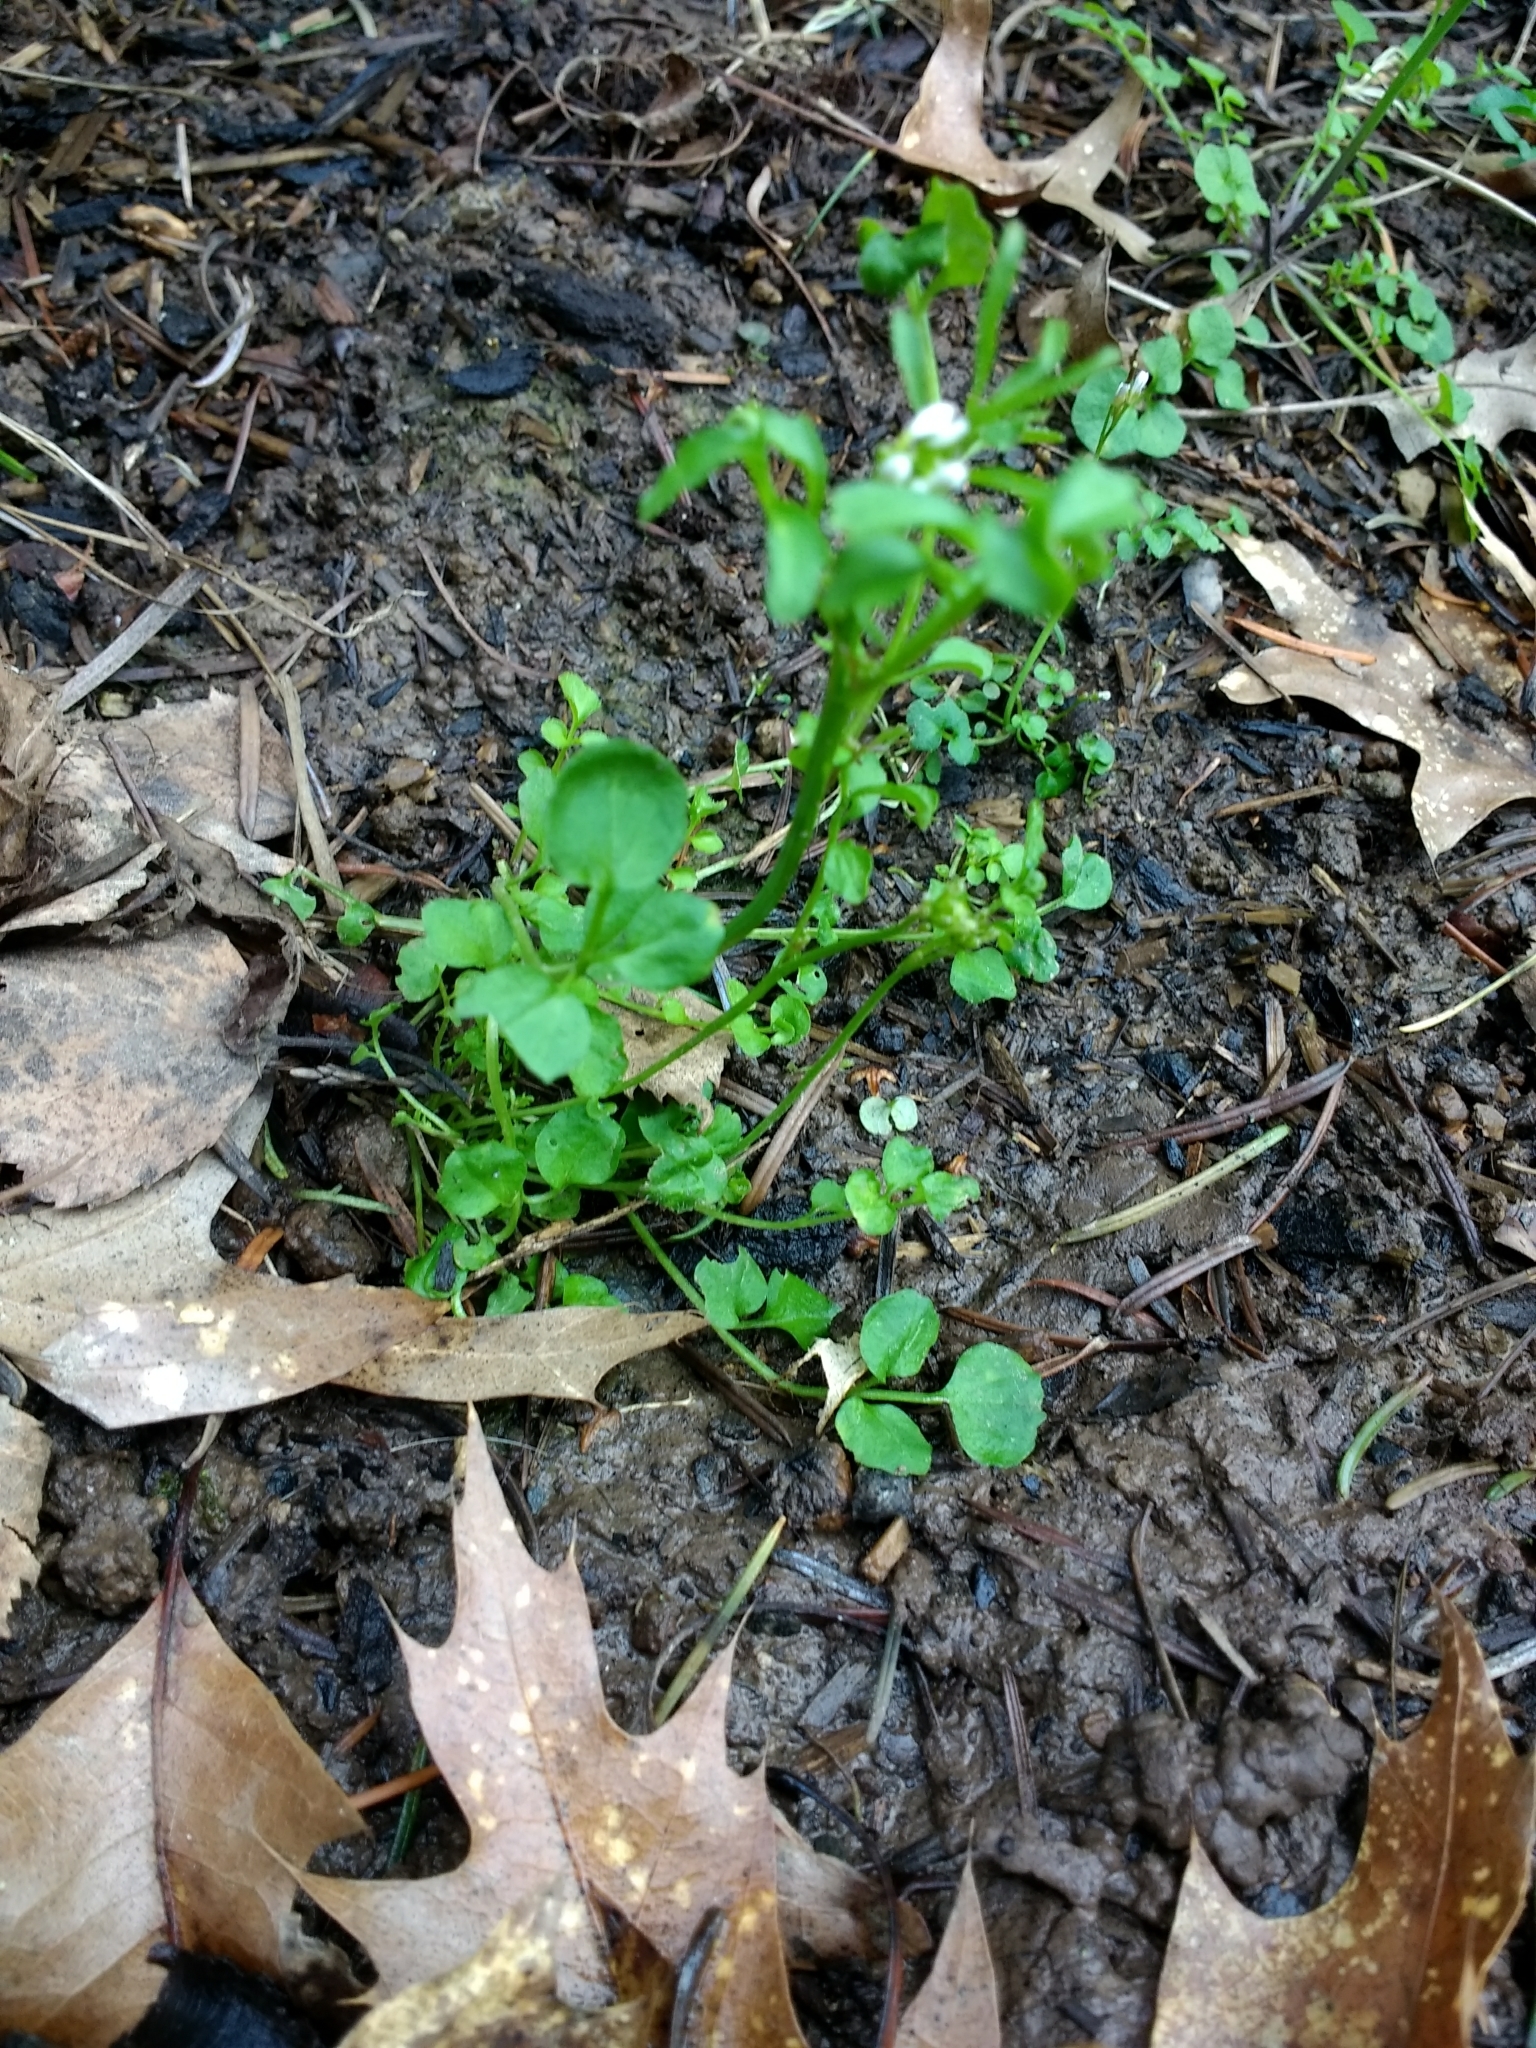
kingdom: Plantae
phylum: Tracheophyta
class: Magnoliopsida
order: Brassicales
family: Brassicaceae
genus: Cardamine
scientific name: Cardamine hirsuta
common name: Hairy bittercress
